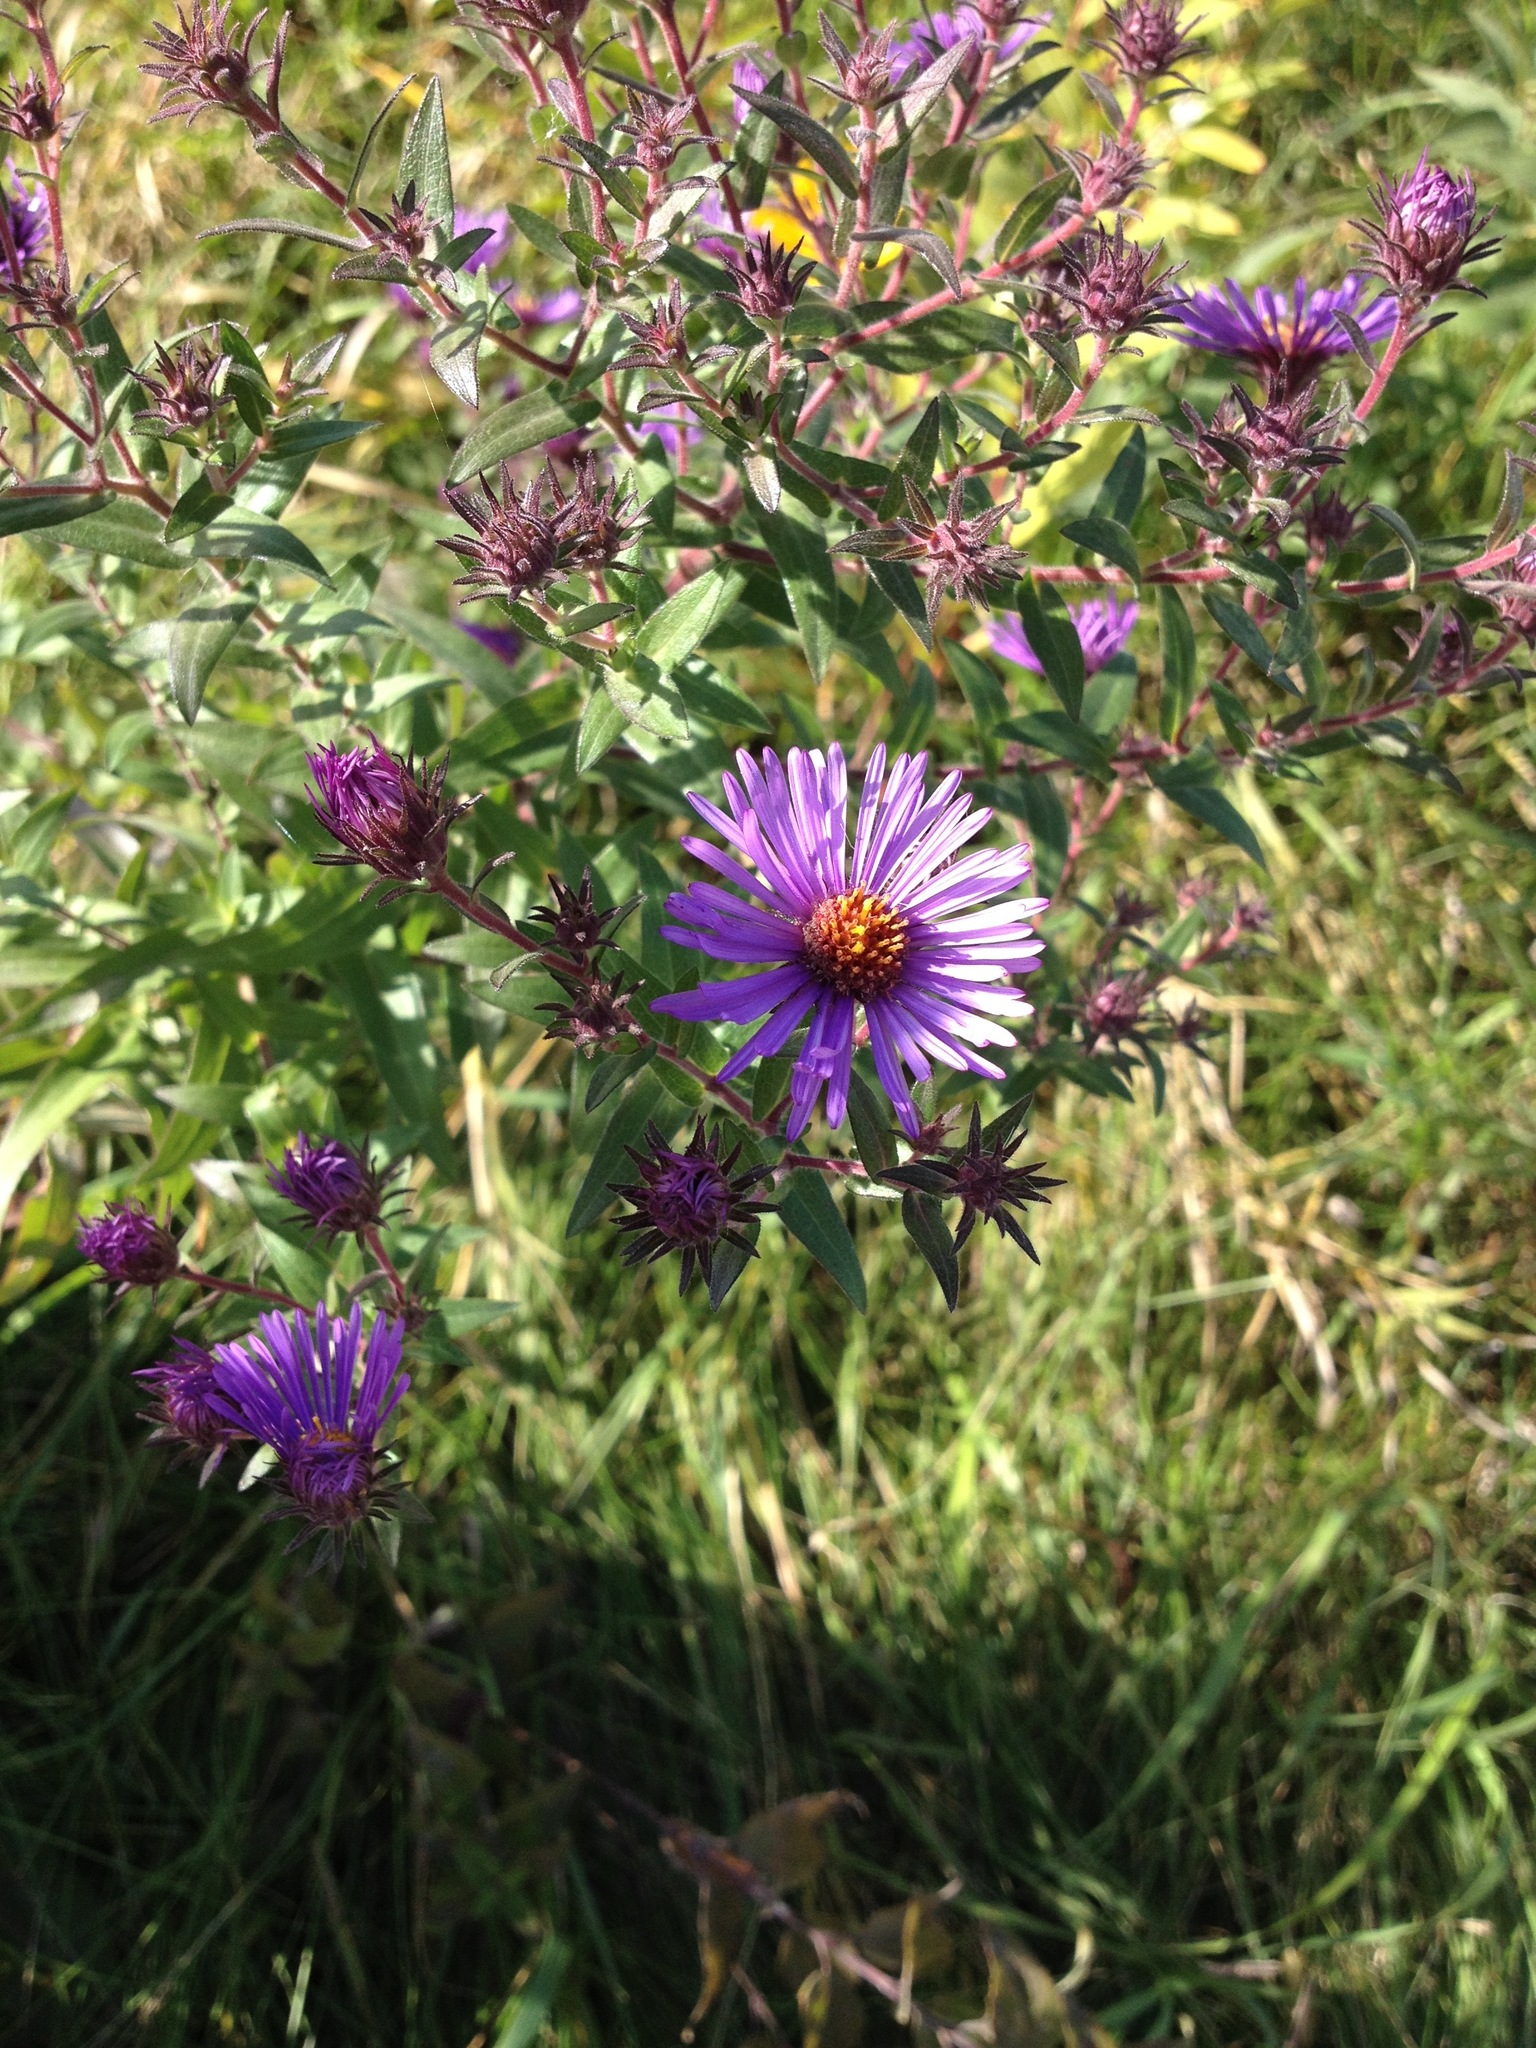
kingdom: Plantae
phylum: Tracheophyta
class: Magnoliopsida
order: Asterales
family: Asteraceae
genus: Symphyotrichum
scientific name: Symphyotrichum novae-angliae
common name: Michaelmas daisy
